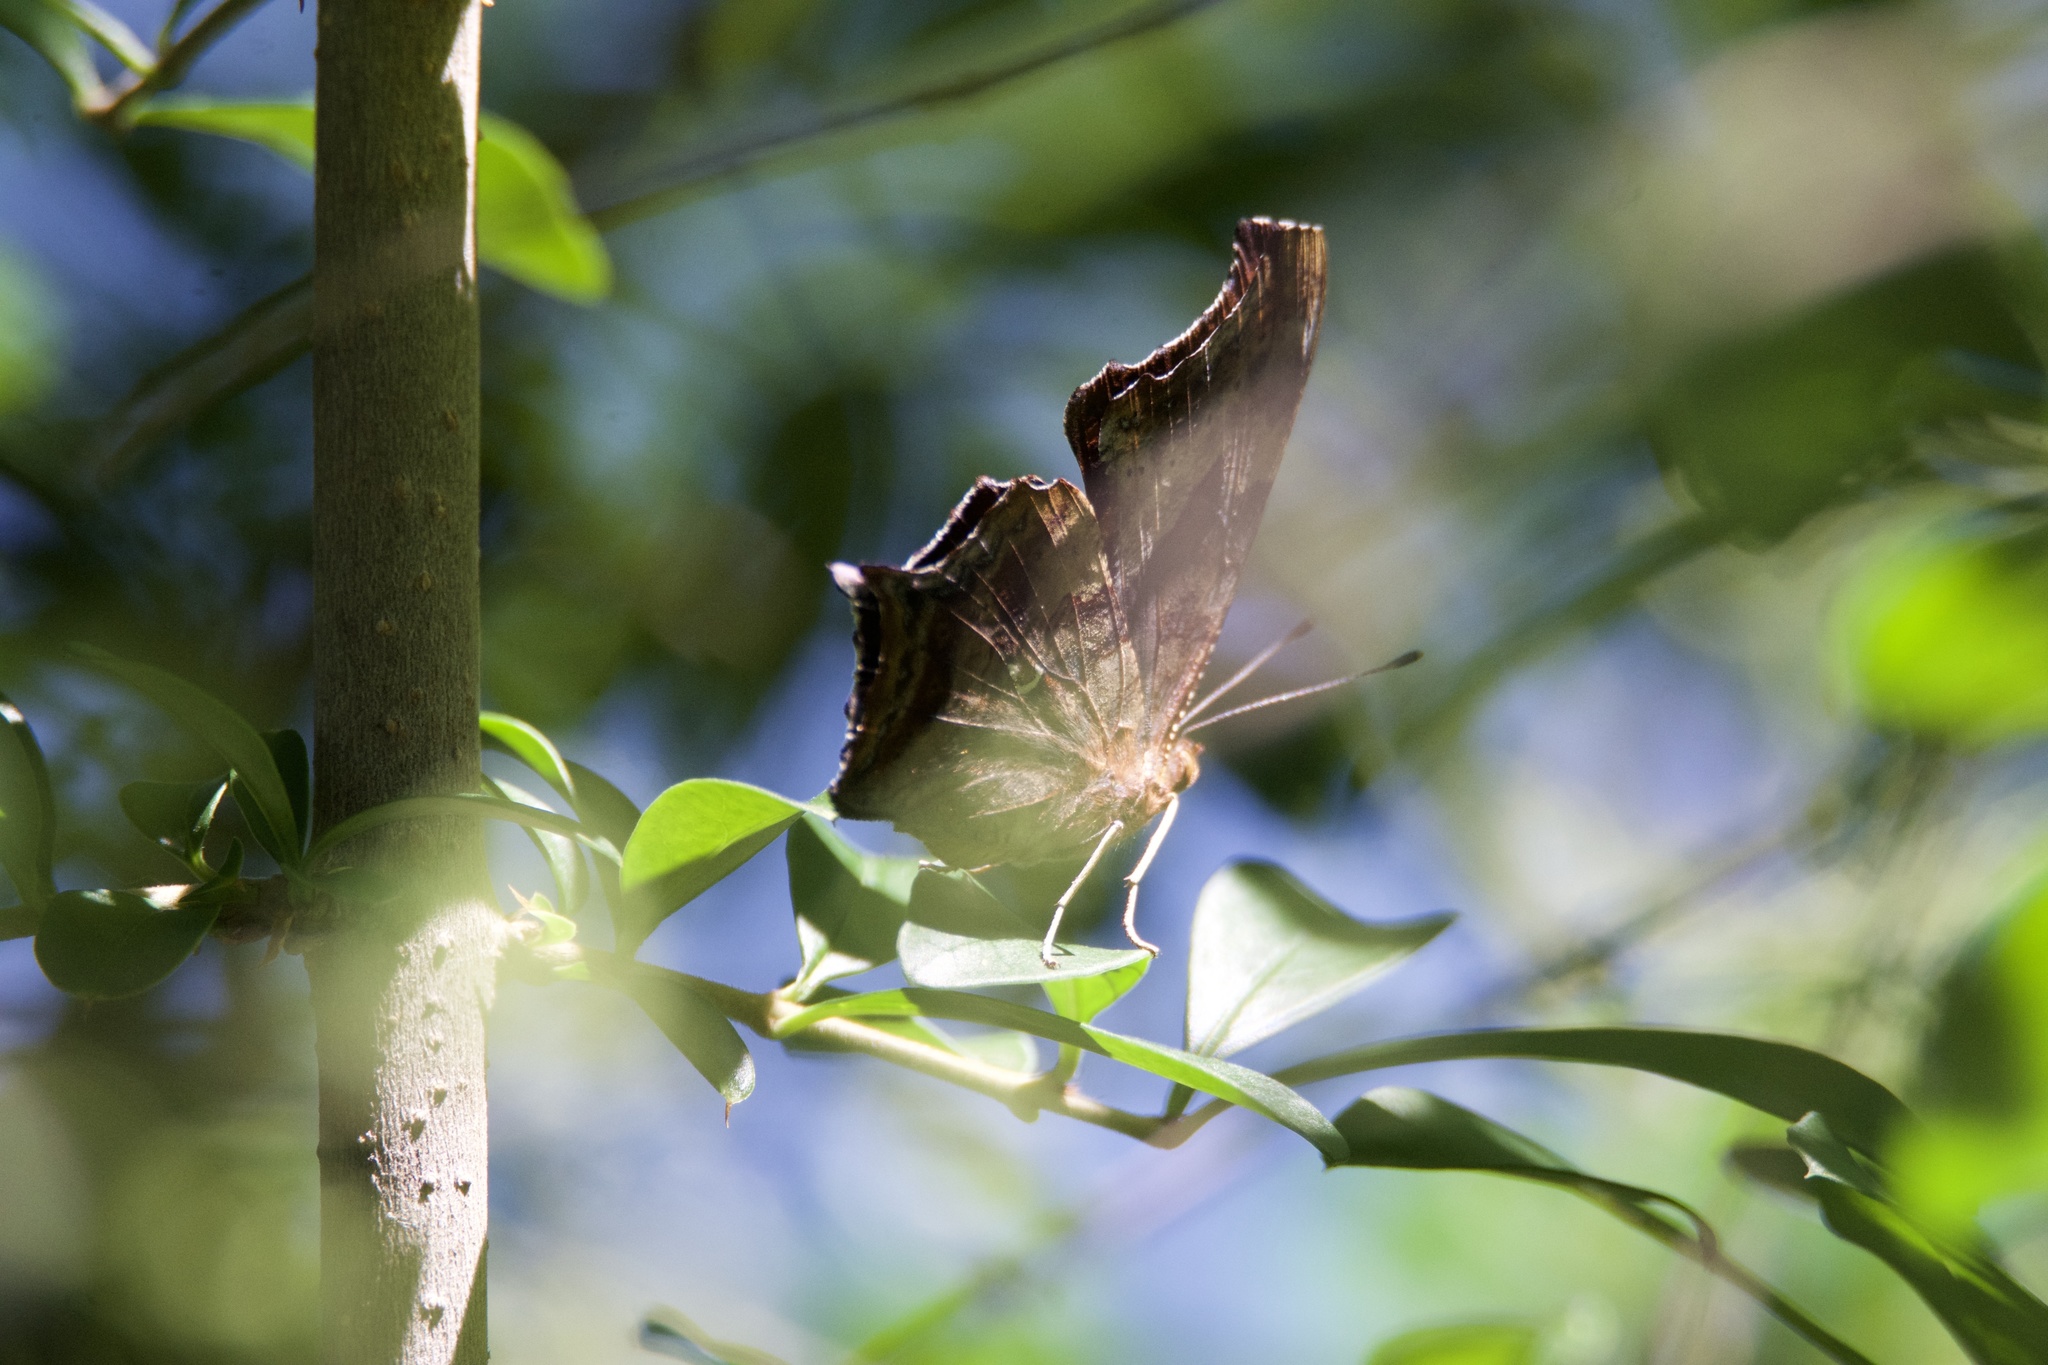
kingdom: Animalia
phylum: Arthropoda
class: Insecta
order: Lepidoptera
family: Nymphalidae
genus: Polygonia
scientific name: Polygonia interrogationis
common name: Question mark
